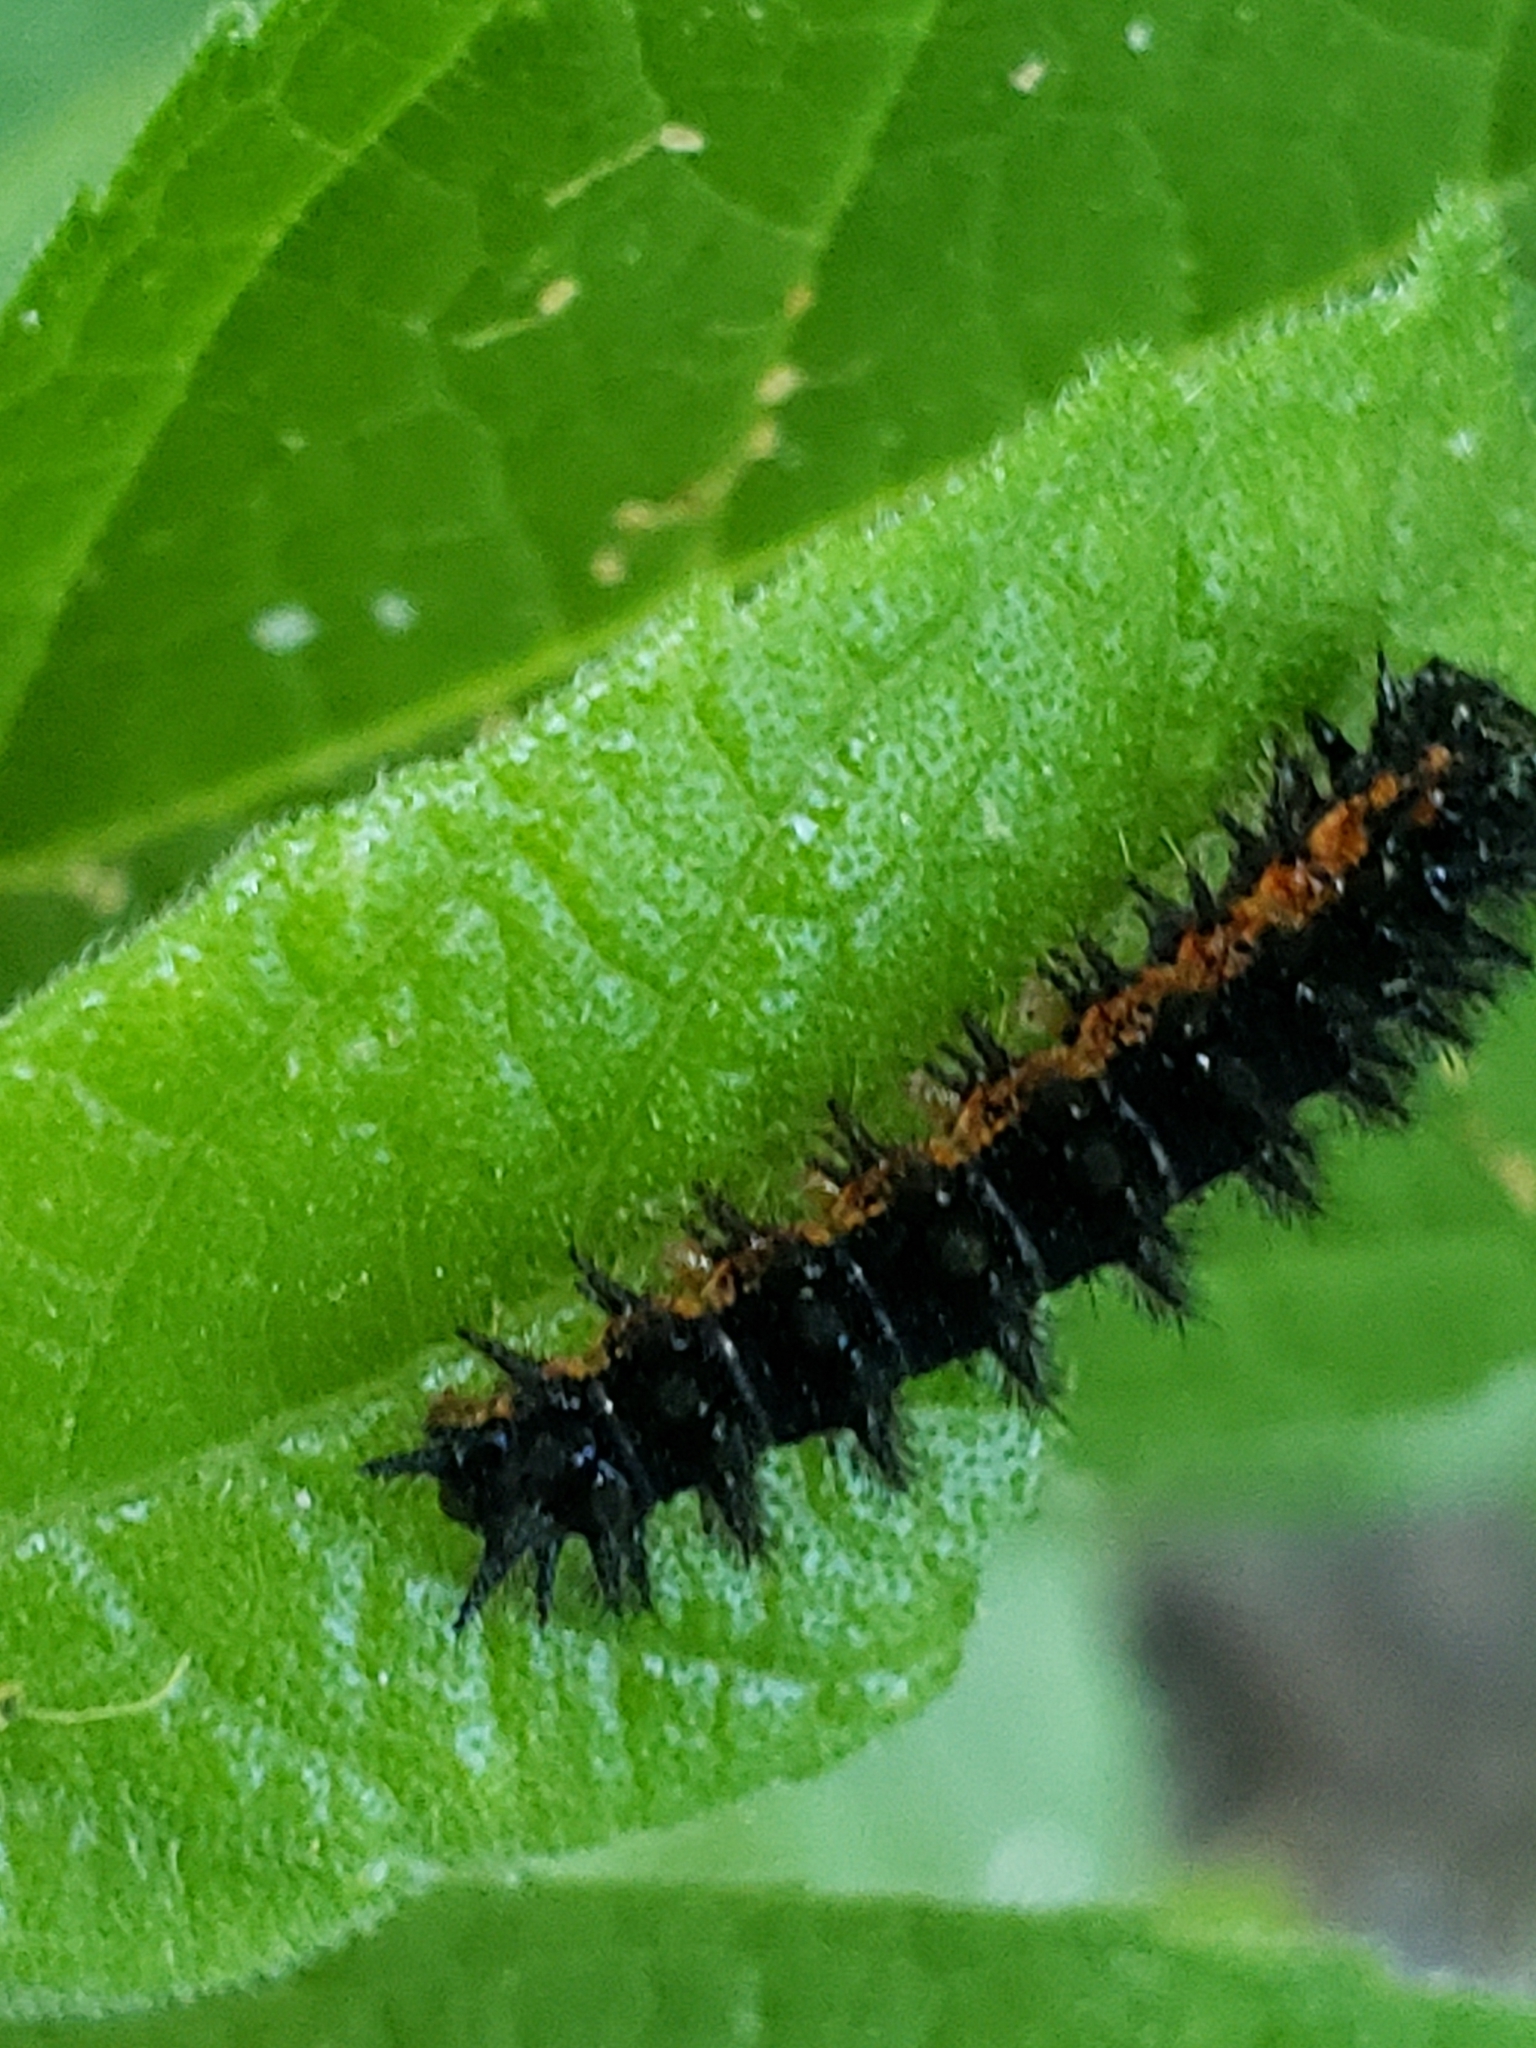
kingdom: Animalia
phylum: Arthropoda
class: Insecta
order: Lepidoptera
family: Nymphalidae
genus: Chlosyne
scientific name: Chlosyne nycteis
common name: Silvery checkerspot
